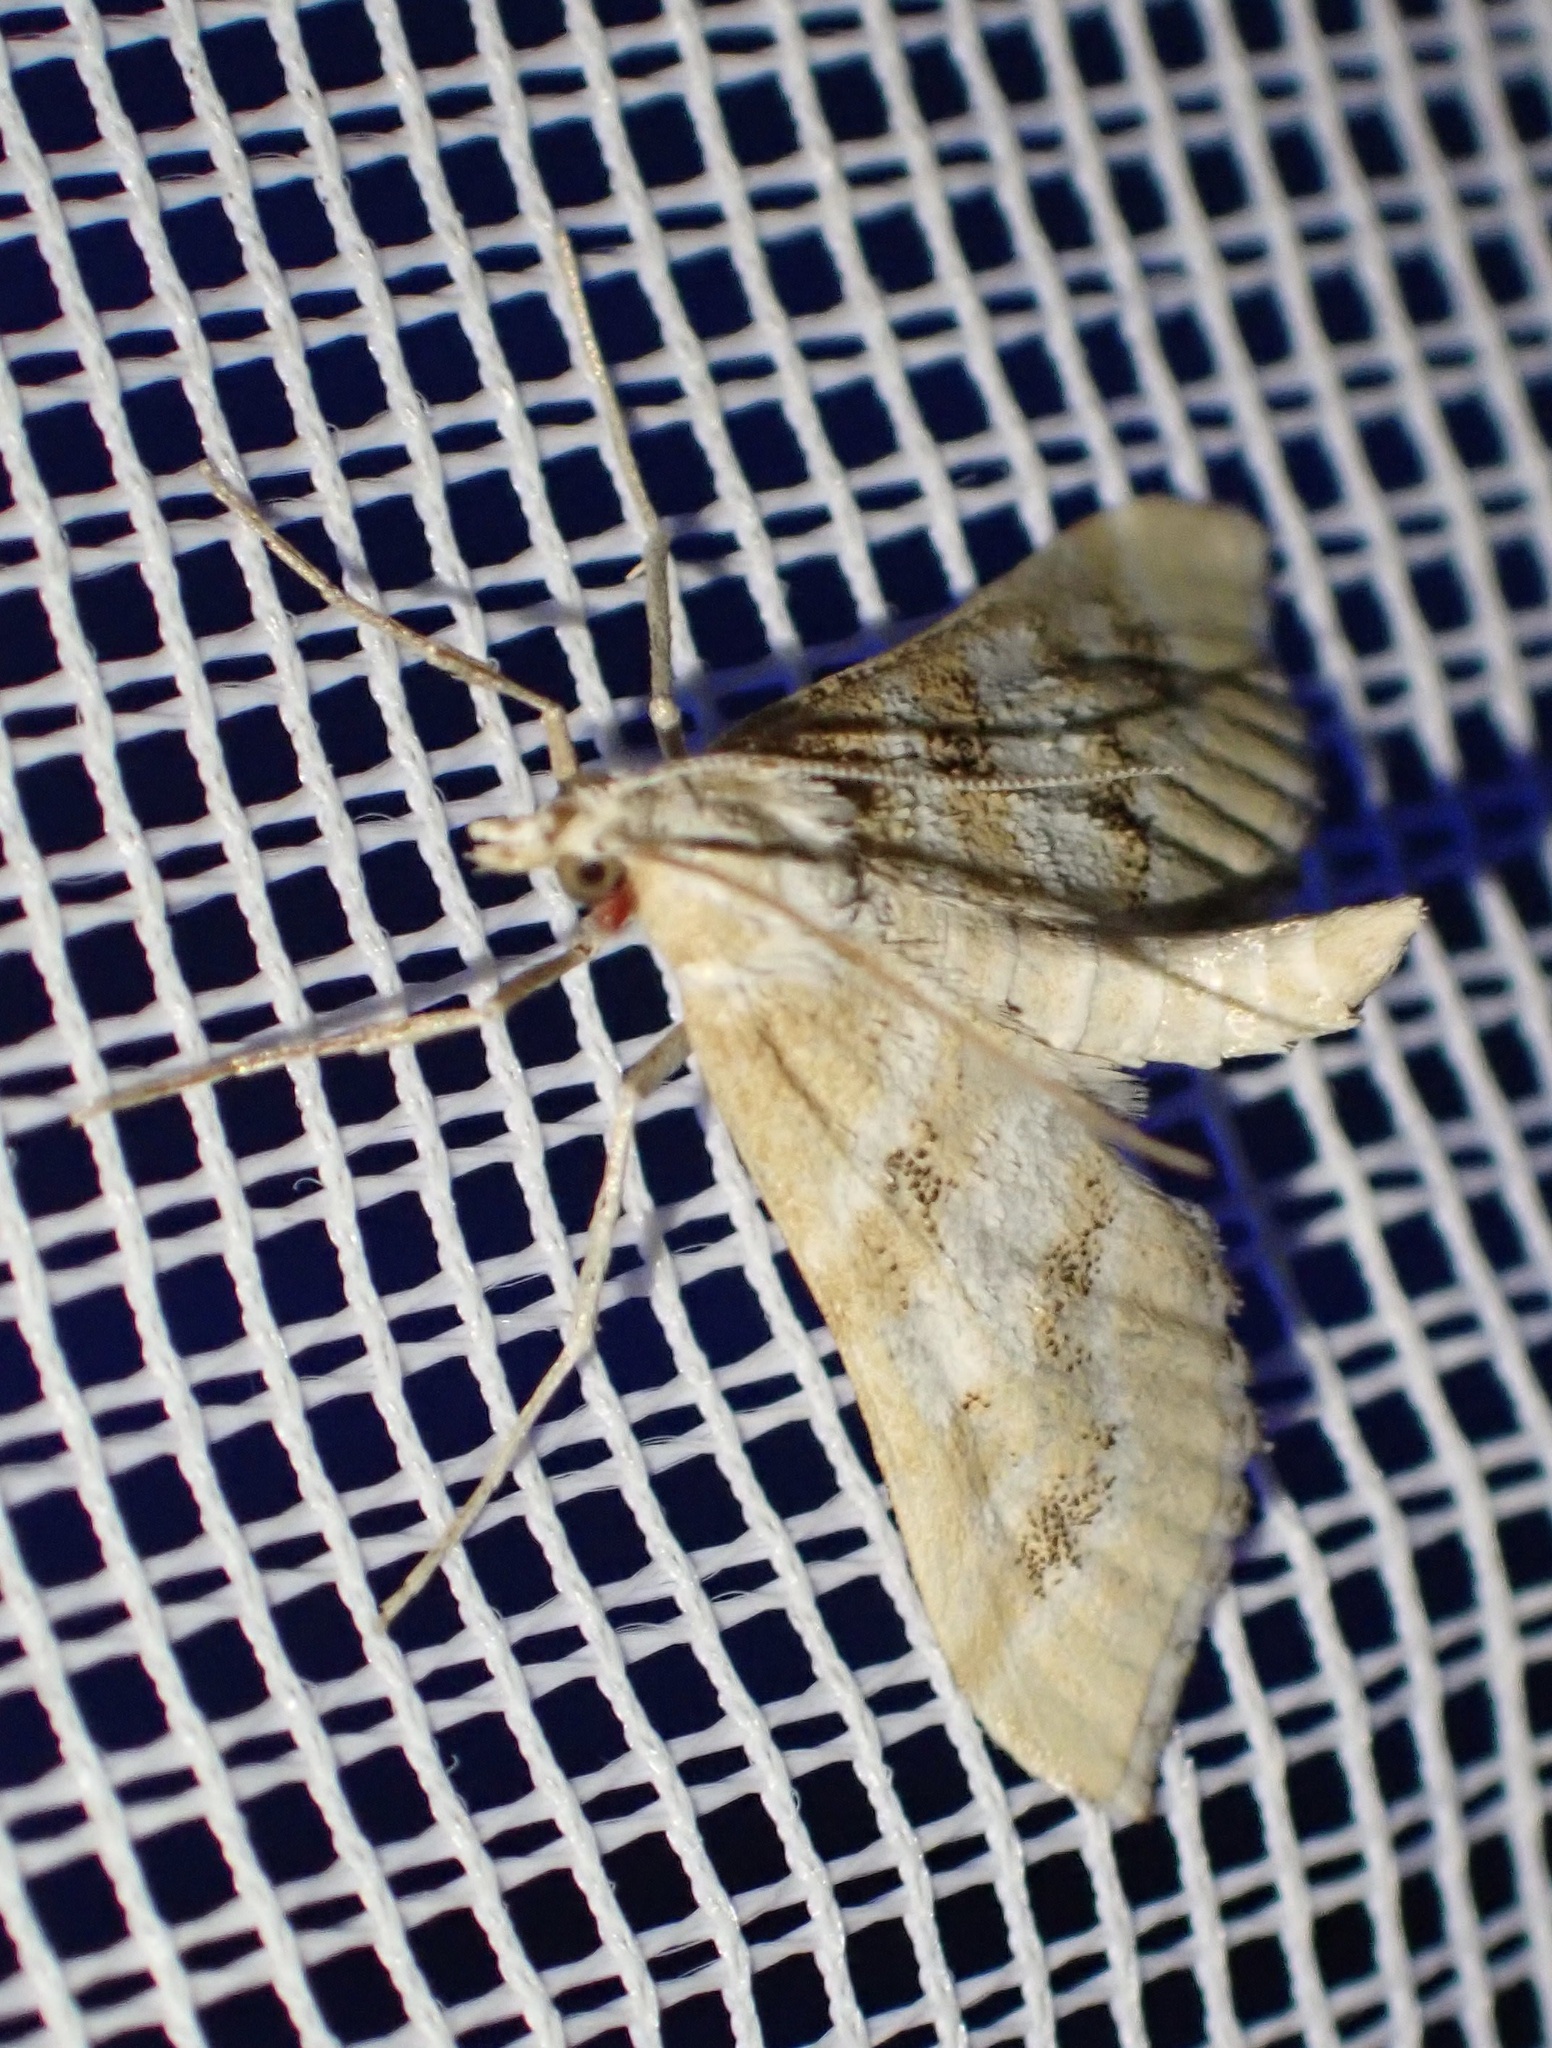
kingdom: Animalia
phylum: Arthropoda
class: Insecta
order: Lepidoptera
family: Crambidae
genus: Metasia
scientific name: Metasia suppandalis
